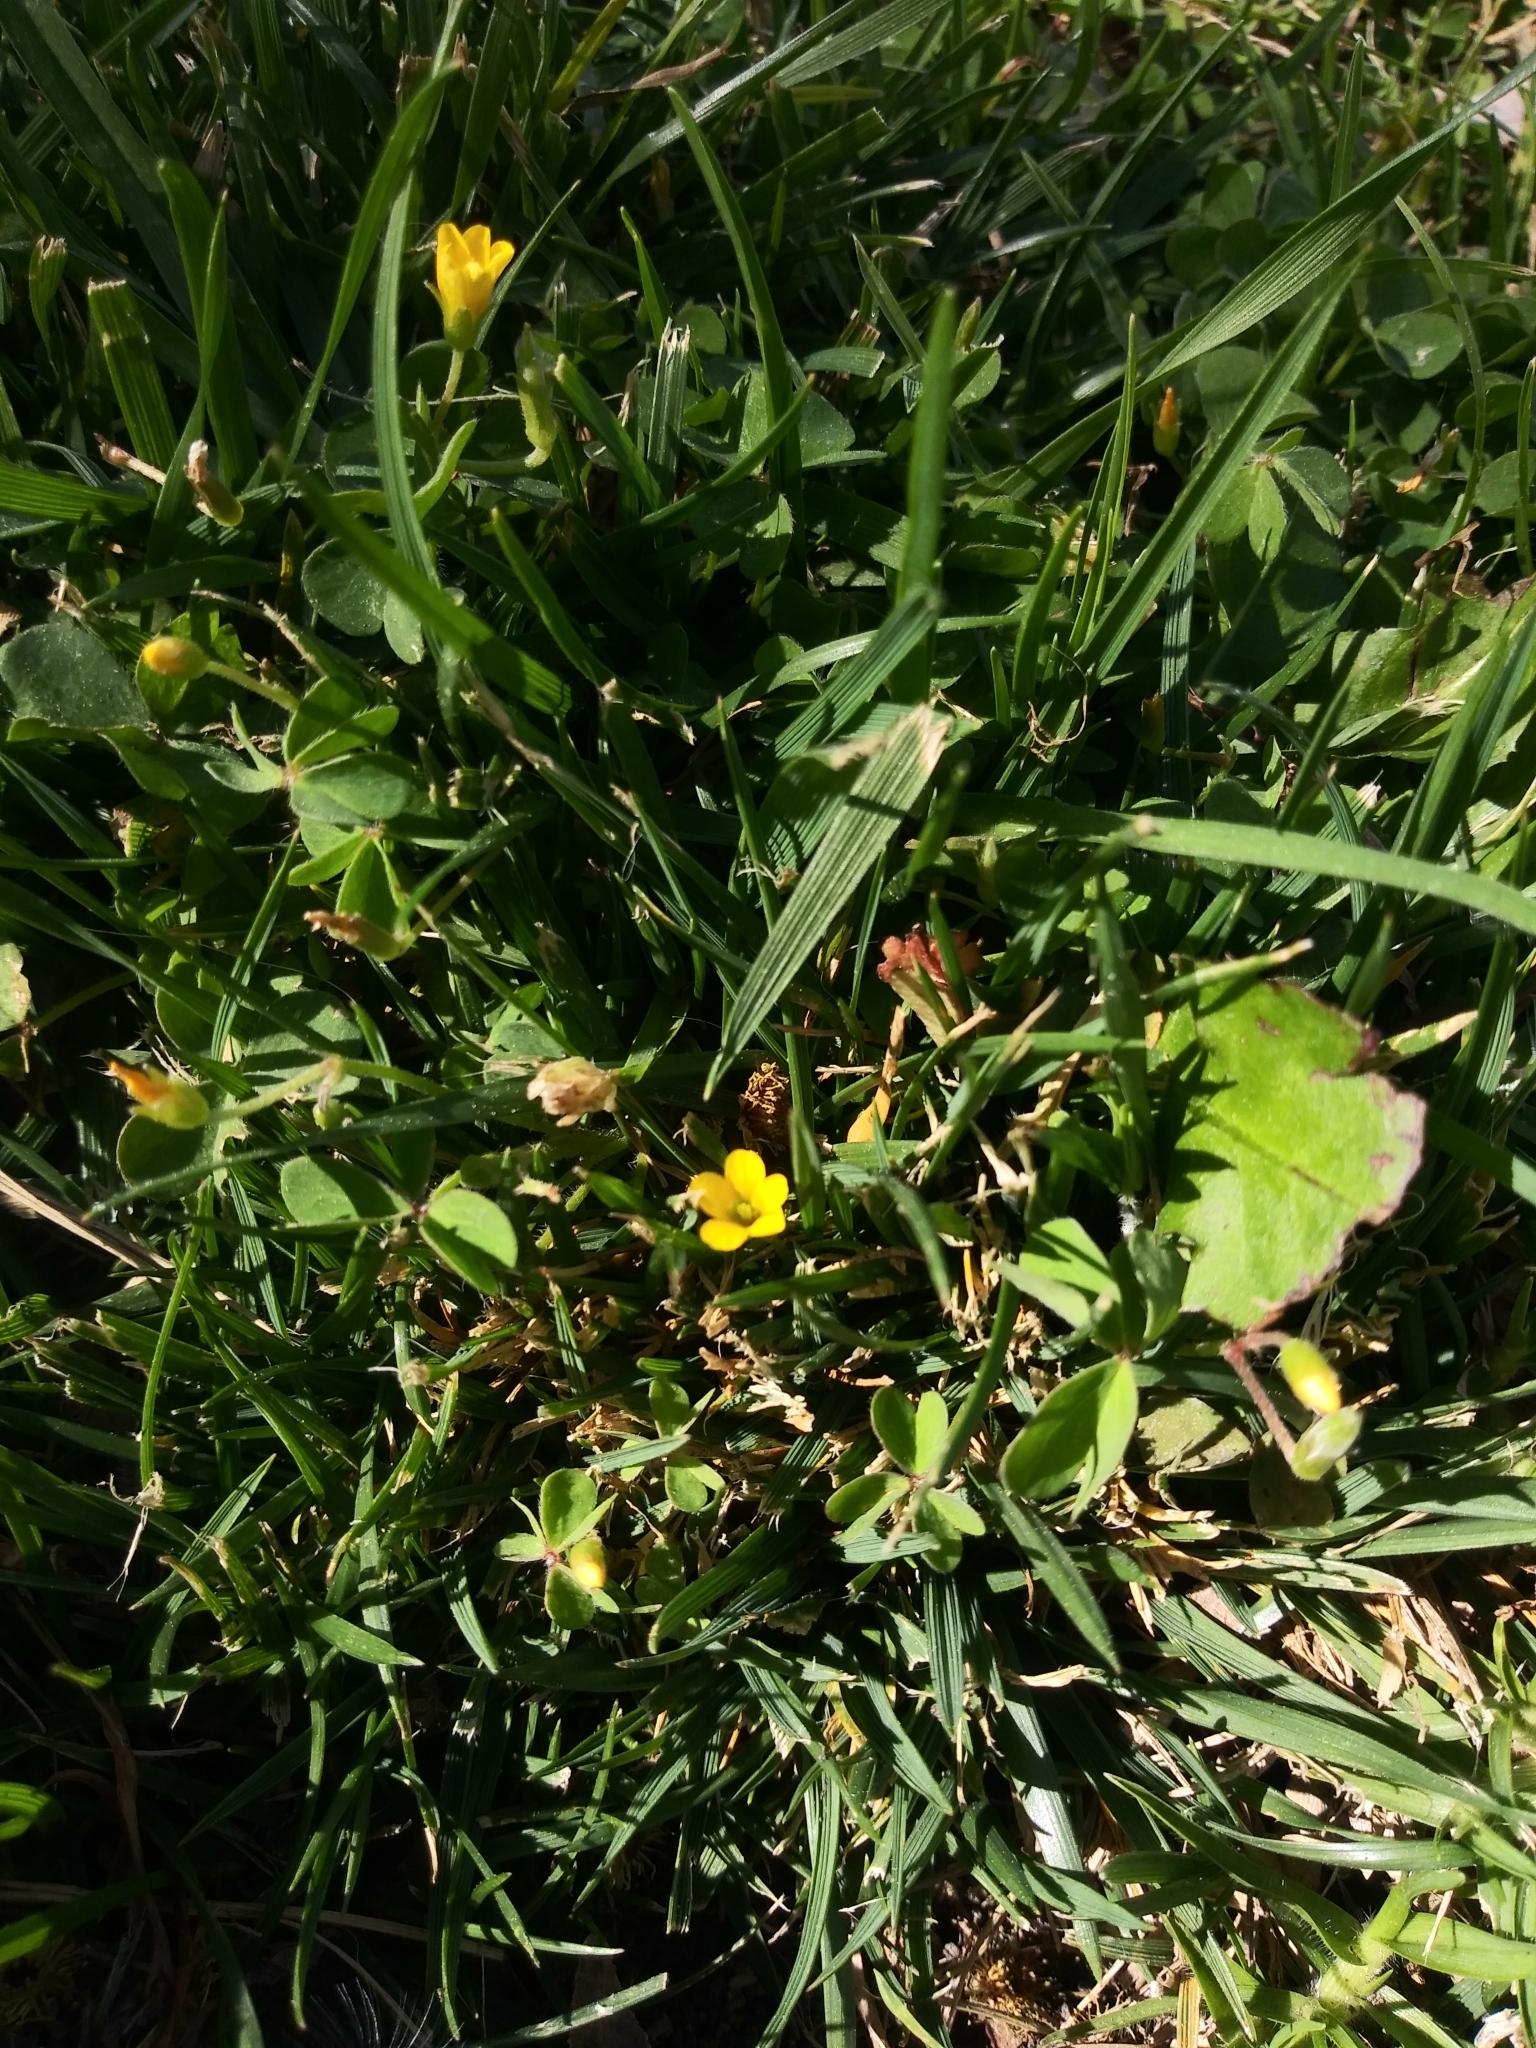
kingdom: Plantae
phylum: Tracheophyta
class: Magnoliopsida
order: Oxalidales
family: Oxalidaceae
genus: Oxalis
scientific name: Oxalis corniculata
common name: Procumbent yellow-sorrel
